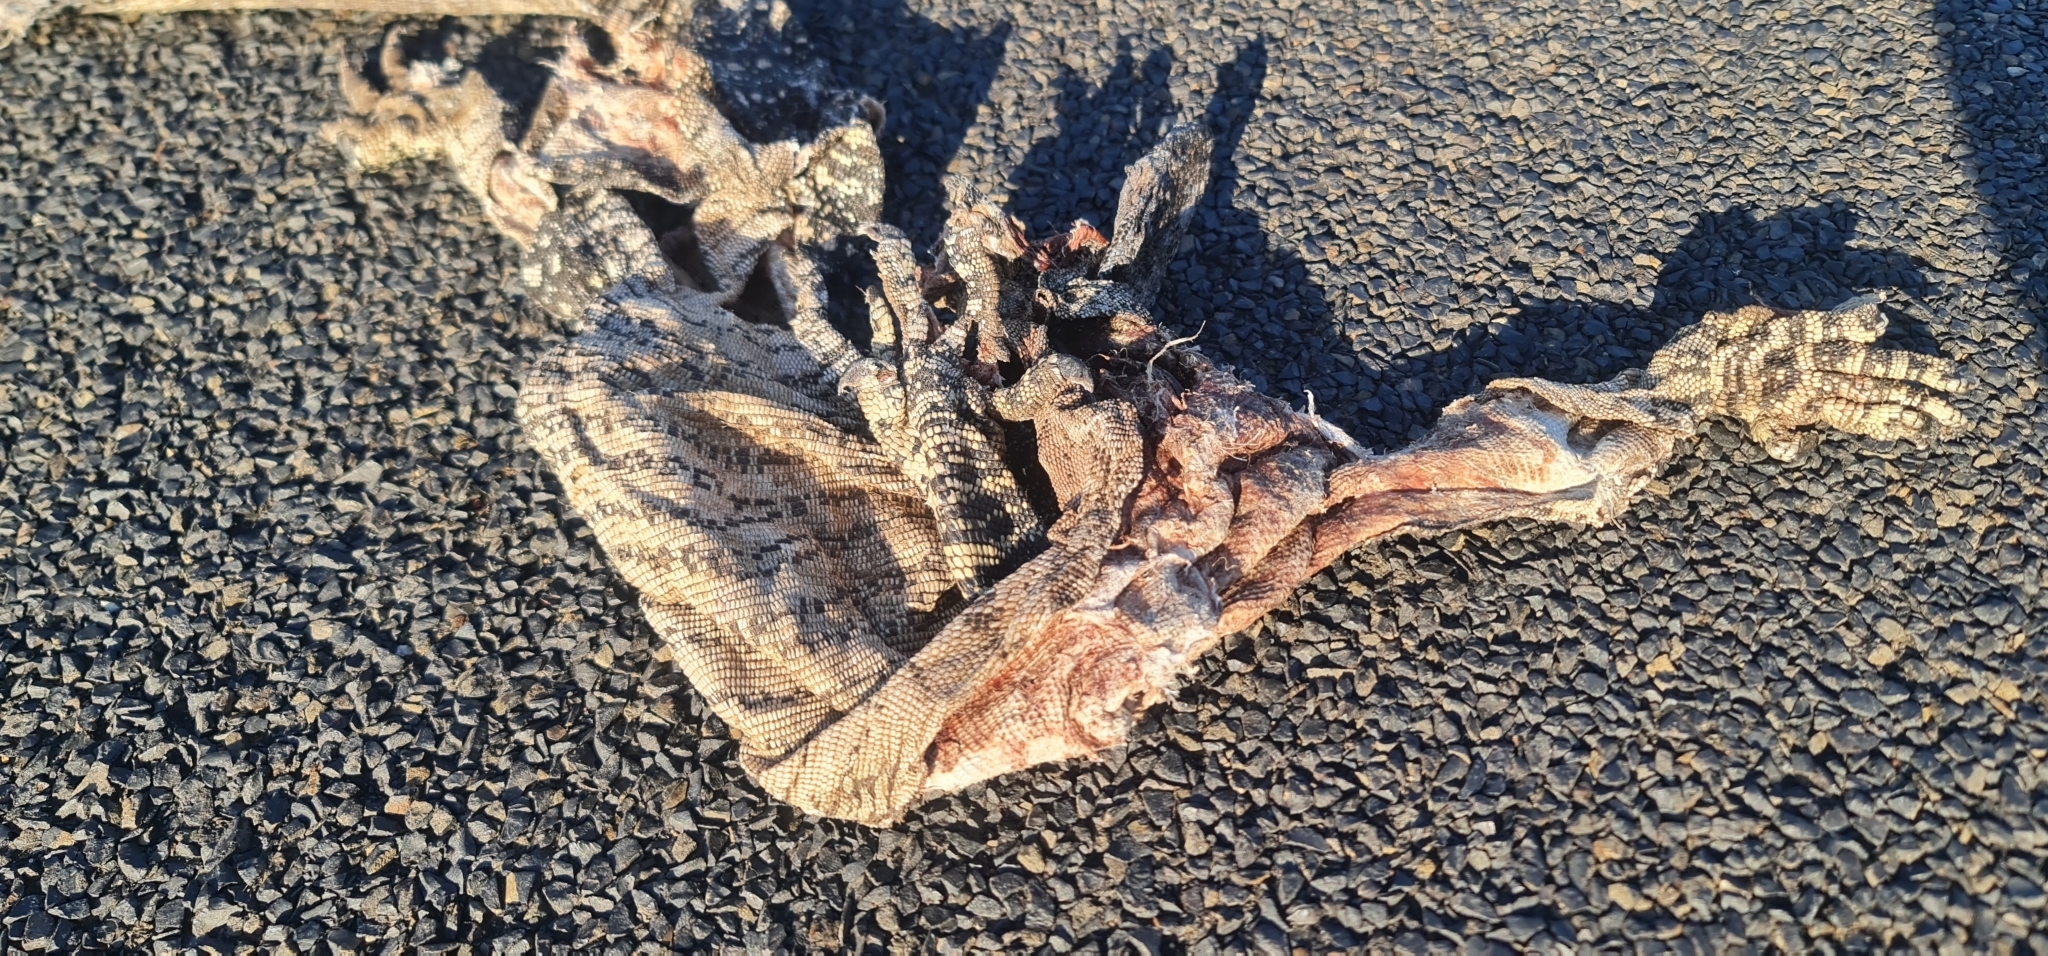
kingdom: Animalia
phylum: Chordata
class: Squamata
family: Varanidae
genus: Varanus
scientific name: Varanus varius
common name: Lace monitor
